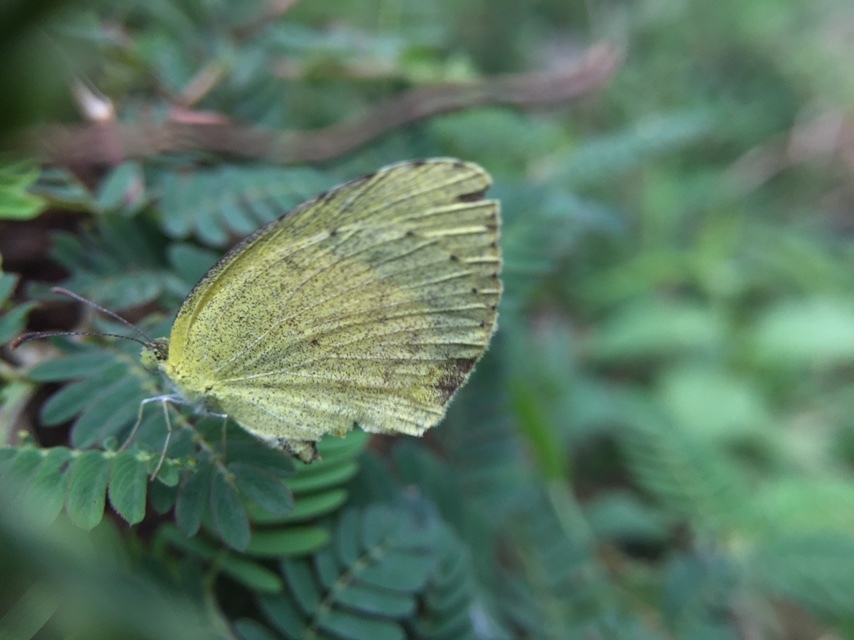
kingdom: Animalia
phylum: Arthropoda
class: Insecta
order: Lepidoptera
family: Pieridae
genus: Eurema
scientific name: Eurema brigitta
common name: Small grass yellow
